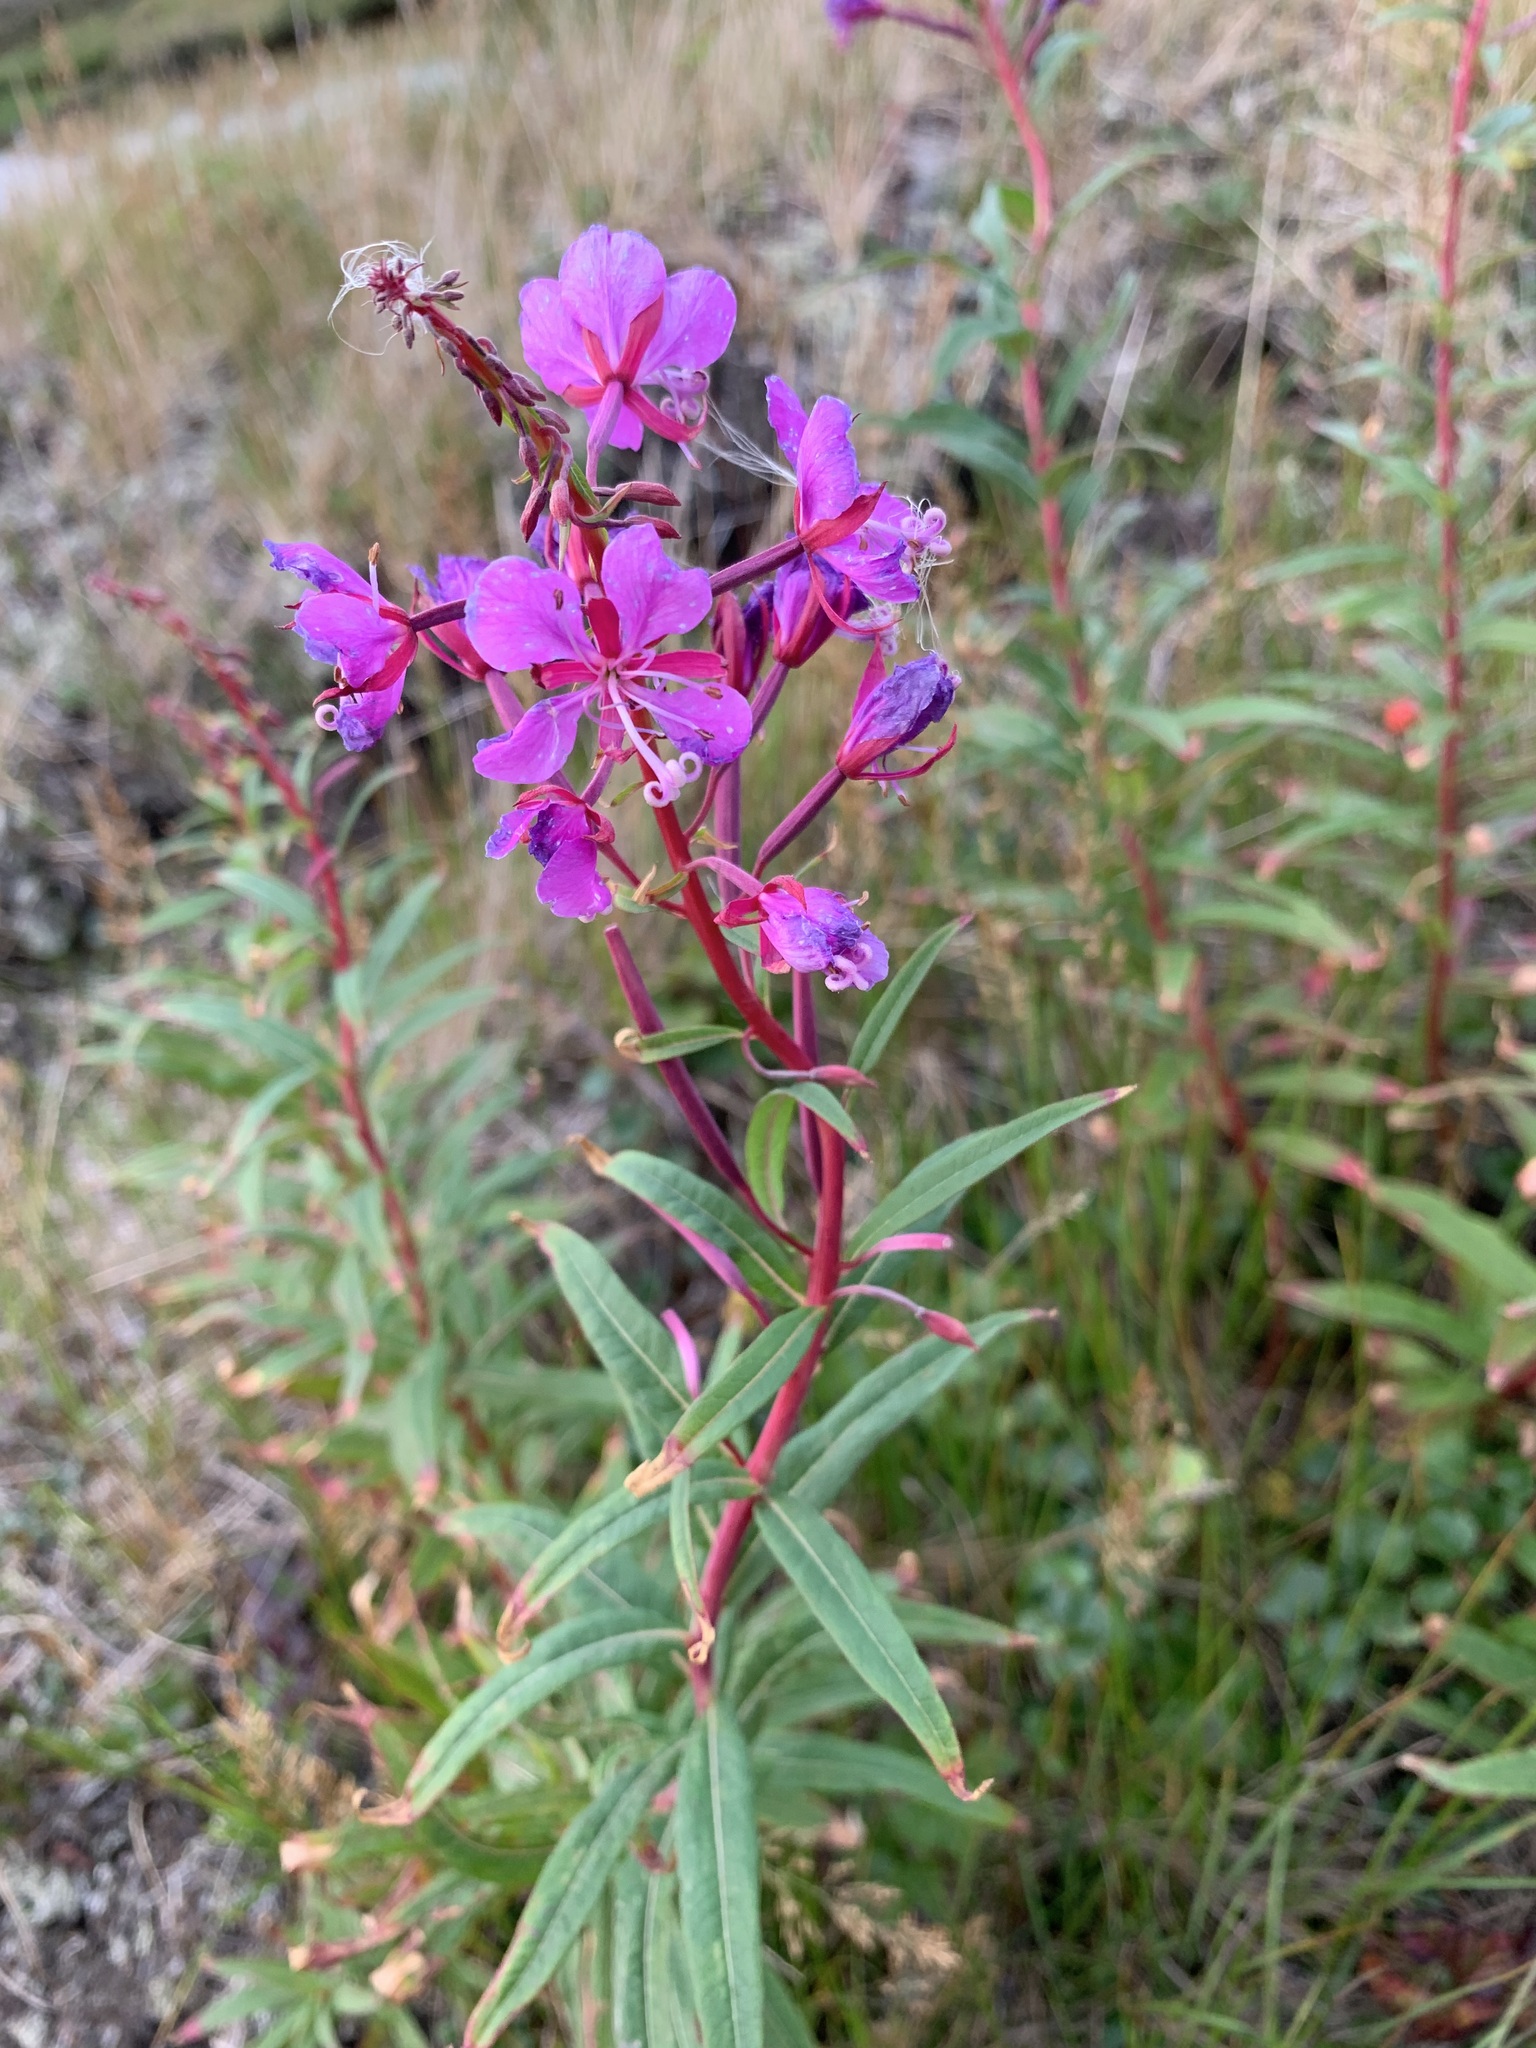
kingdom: Plantae
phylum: Tracheophyta
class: Magnoliopsida
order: Myrtales
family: Onagraceae
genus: Chamaenerion
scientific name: Chamaenerion angustifolium
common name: Fireweed
